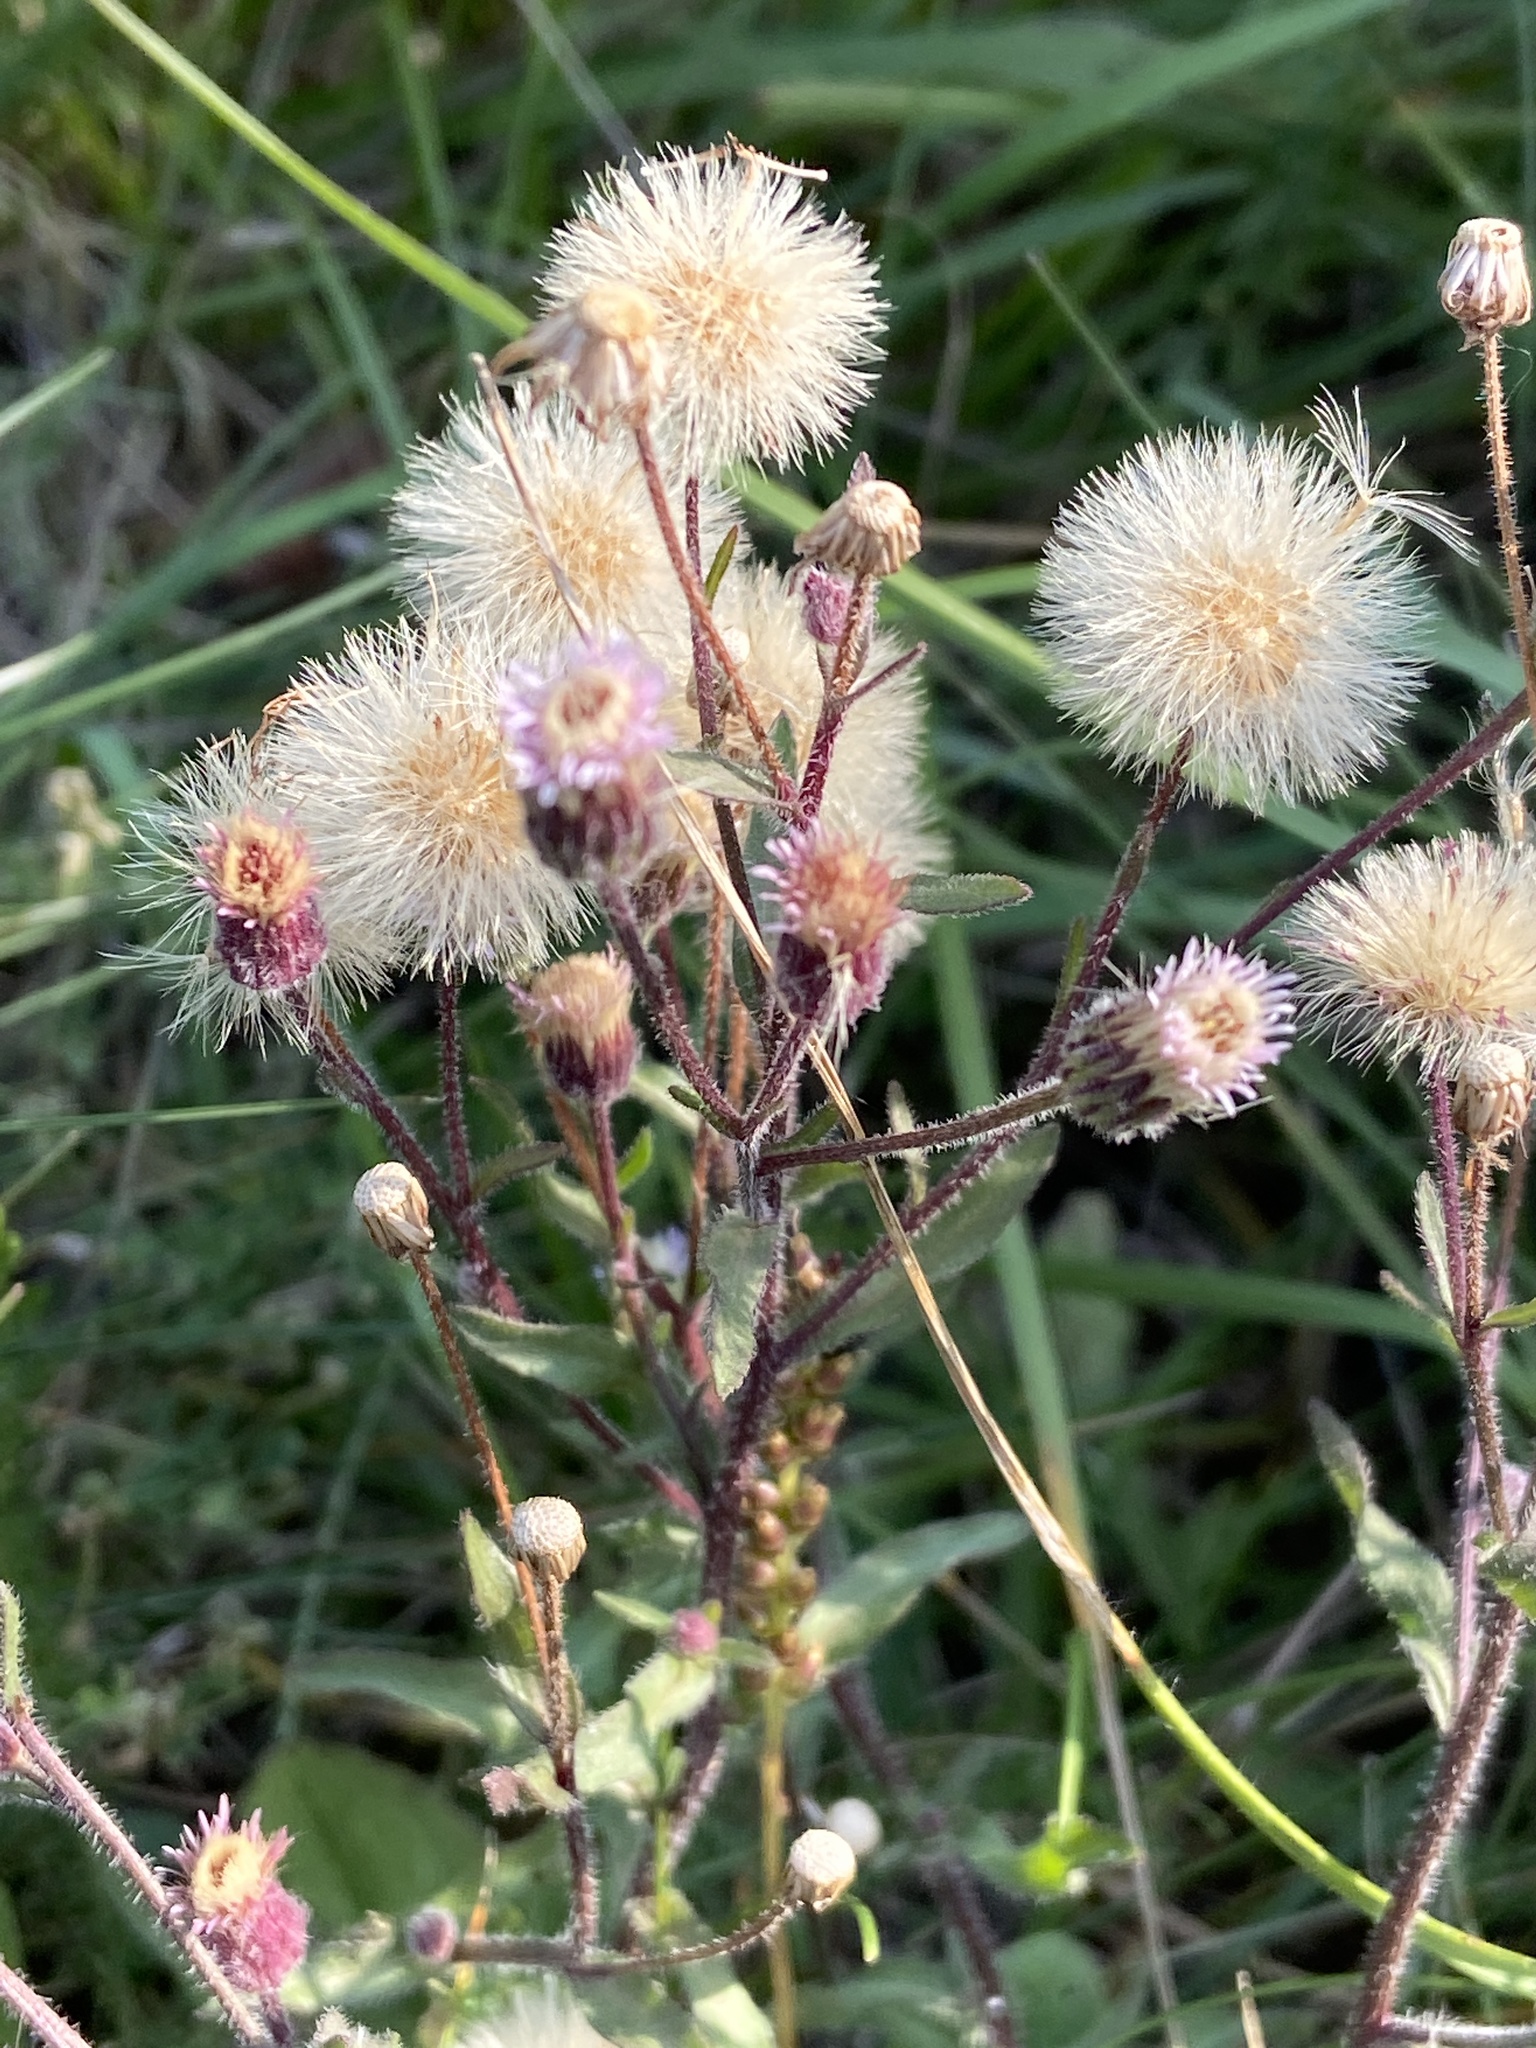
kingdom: Plantae
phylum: Tracheophyta
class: Magnoliopsida
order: Asterales
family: Asteraceae
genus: Erigeron
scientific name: Erigeron acris
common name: Blue fleabane
